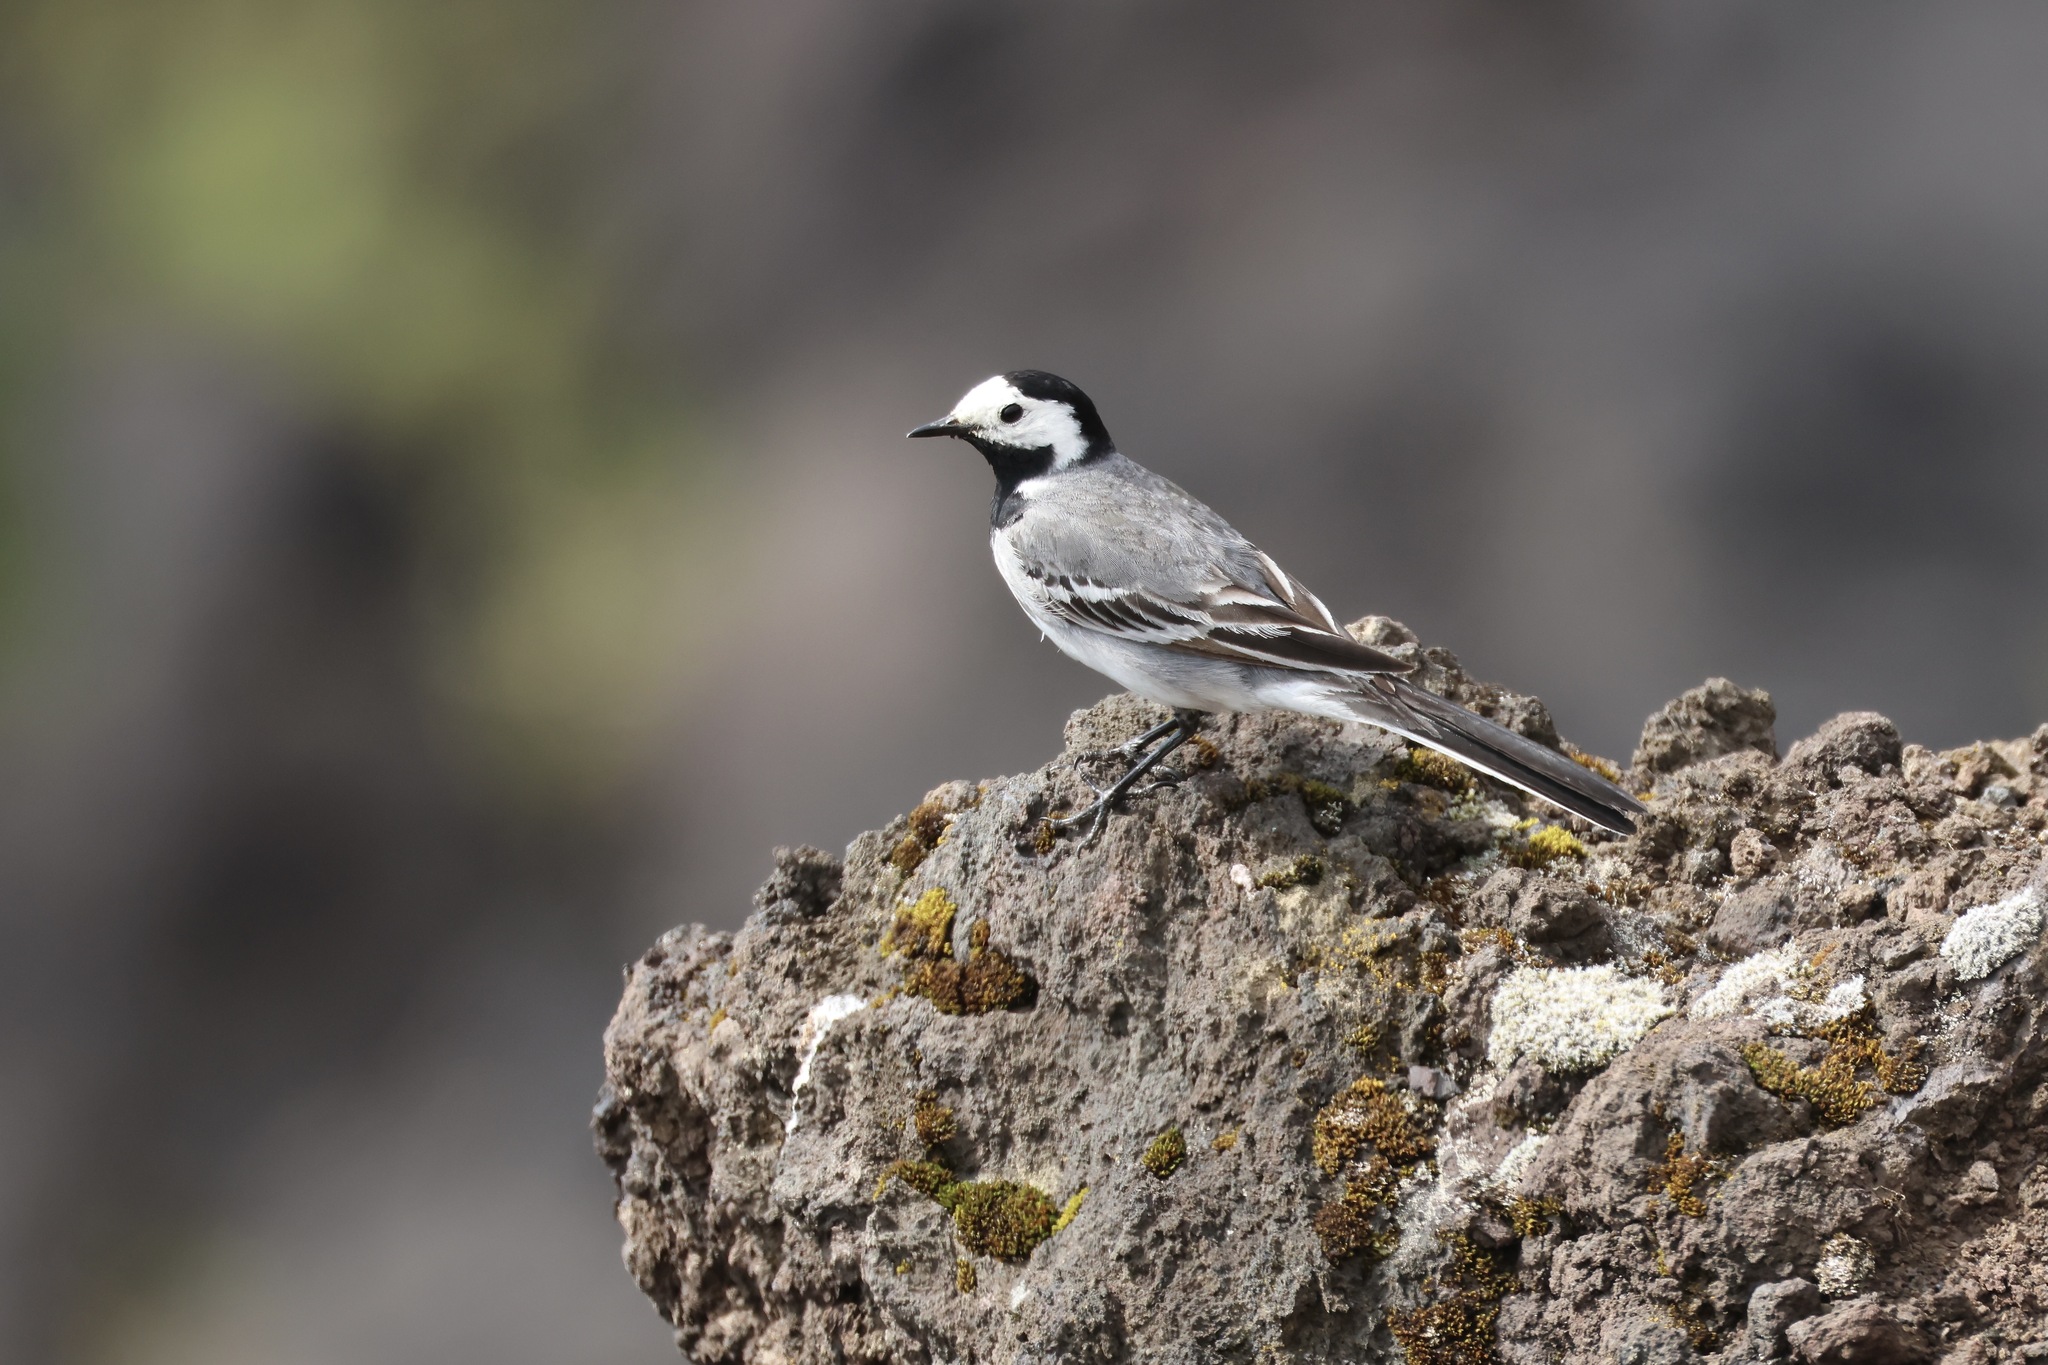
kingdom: Animalia
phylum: Chordata
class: Aves
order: Passeriformes
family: Motacillidae
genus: Motacilla
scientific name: Motacilla alba
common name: White wagtail
